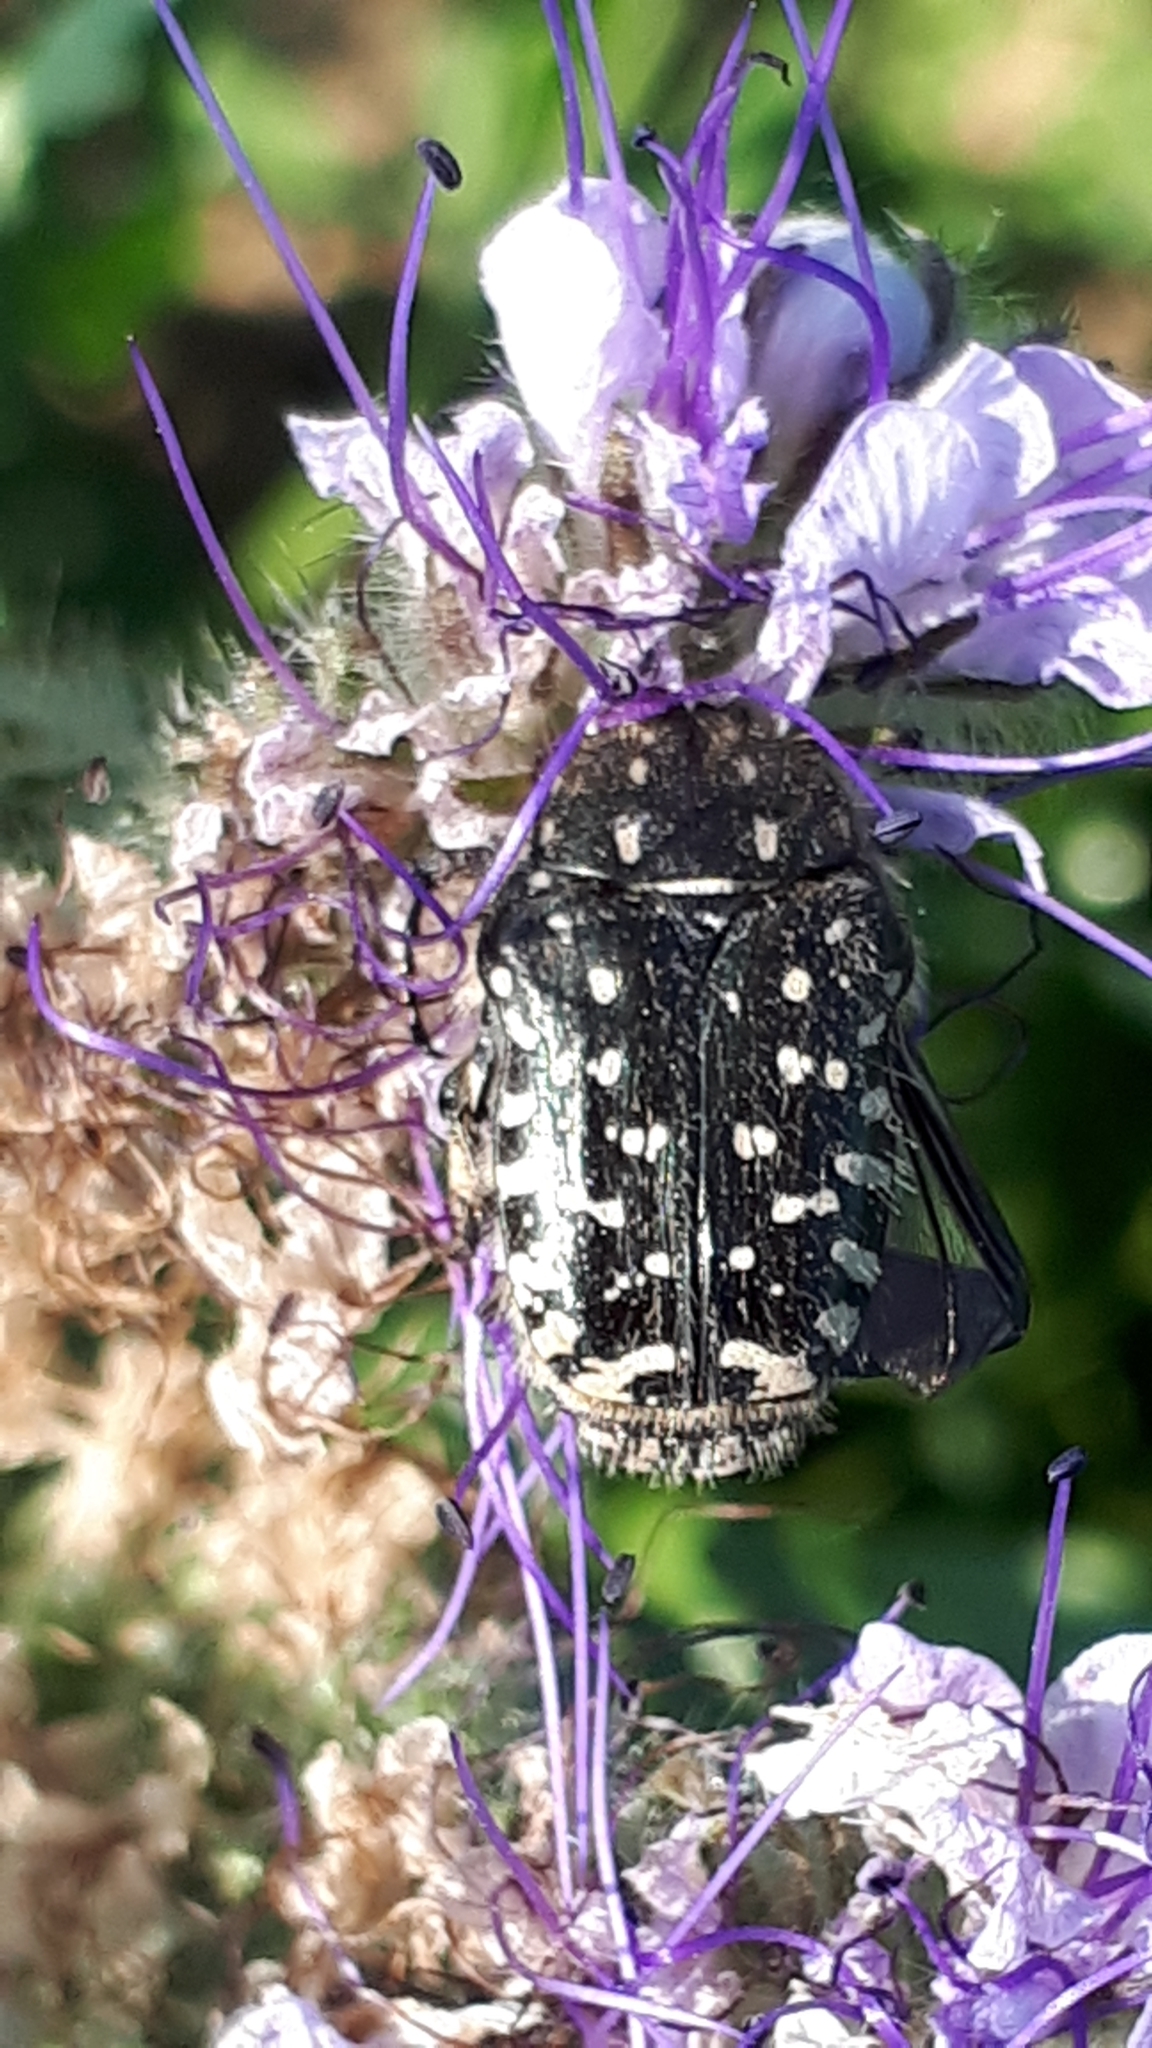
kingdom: Animalia
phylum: Arthropoda
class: Insecta
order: Coleoptera
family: Scarabaeidae
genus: Oxythyrea
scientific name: Oxythyrea funesta
